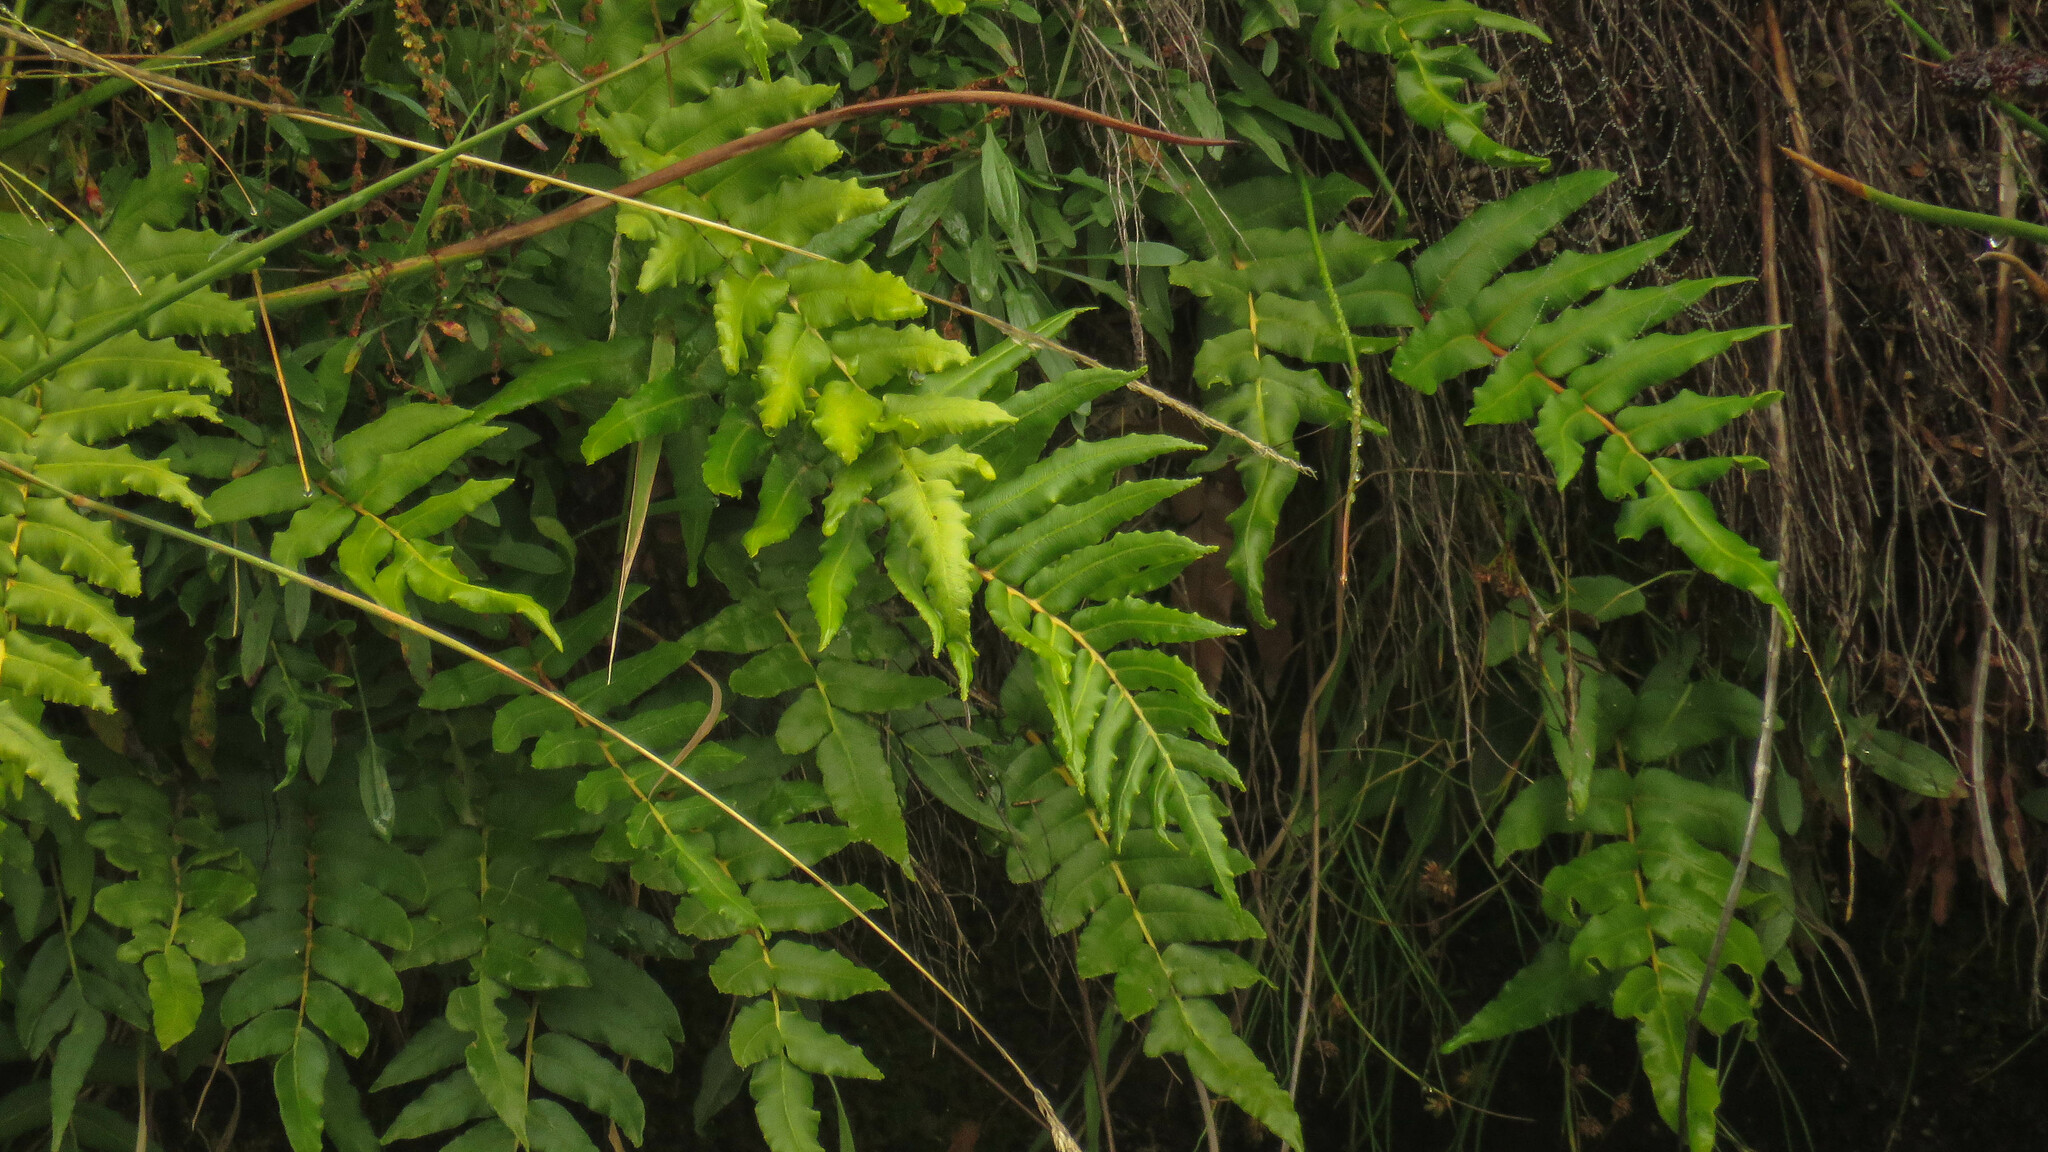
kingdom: Plantae
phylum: Tracheophyta
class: Polypodiopsida
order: Polypodiales
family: Blechnaceae
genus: Parablechnum
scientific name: Parablechnum cordatum
